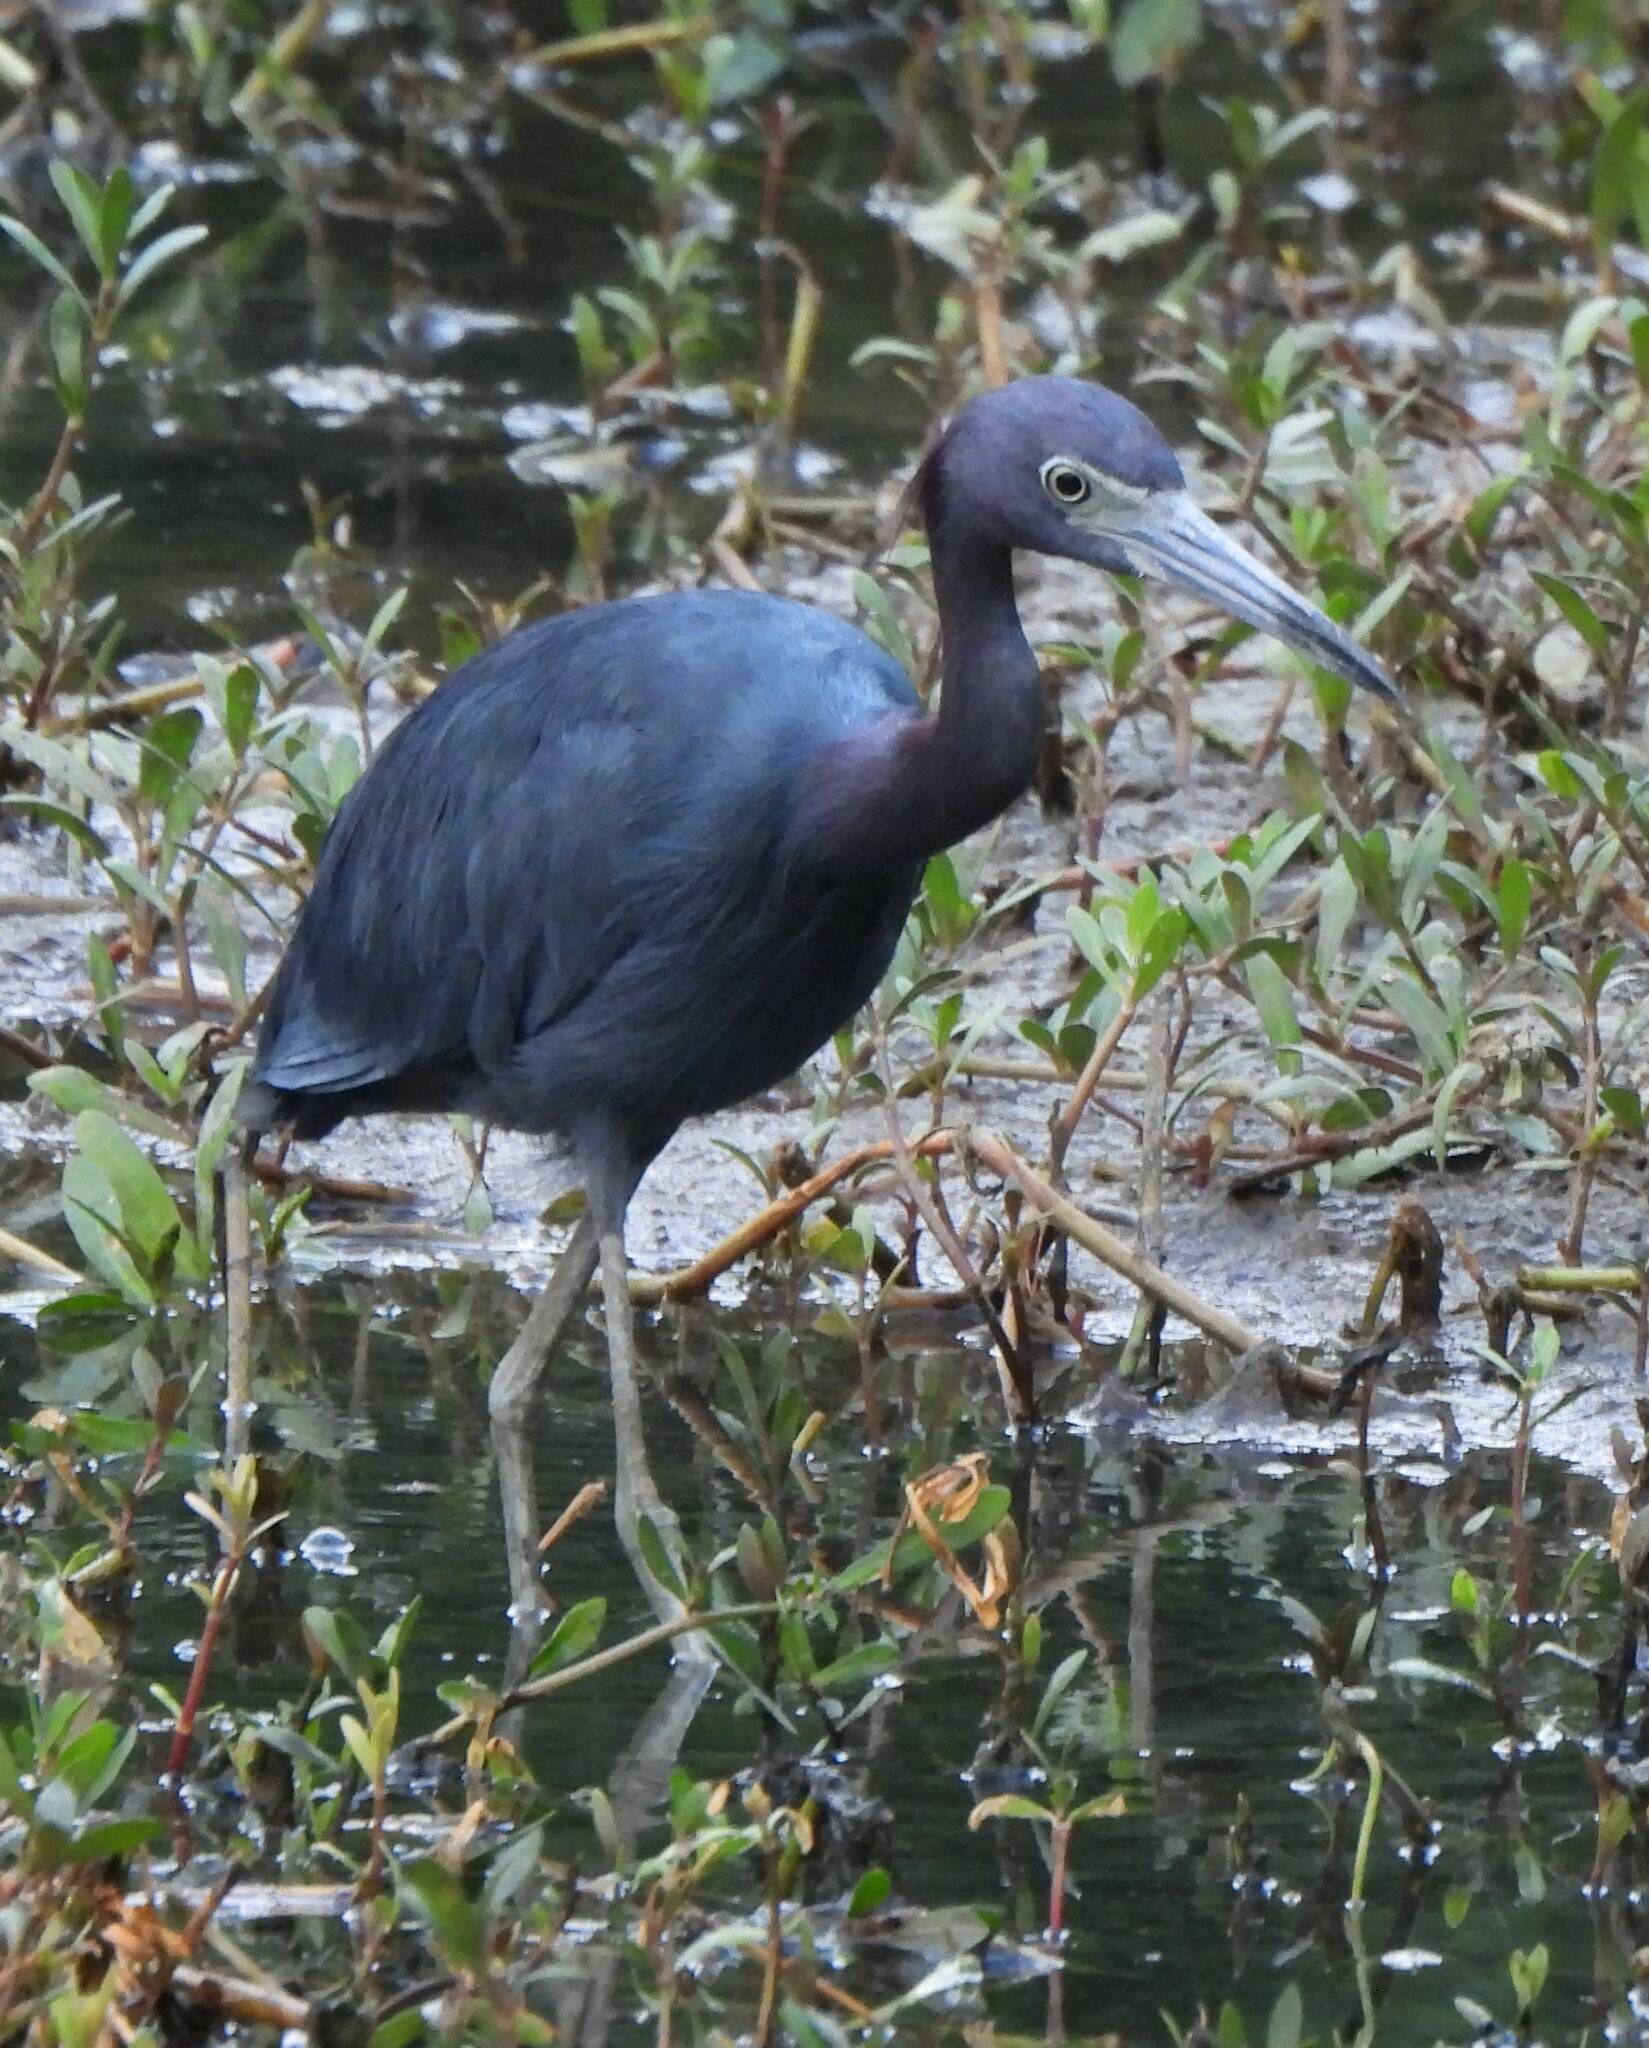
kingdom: Animalia
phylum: Chordata
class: Aves
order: Pelecaniformes
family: Ardeidae
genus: Egretta
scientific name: Egretta caerulea
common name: Little blue heron
